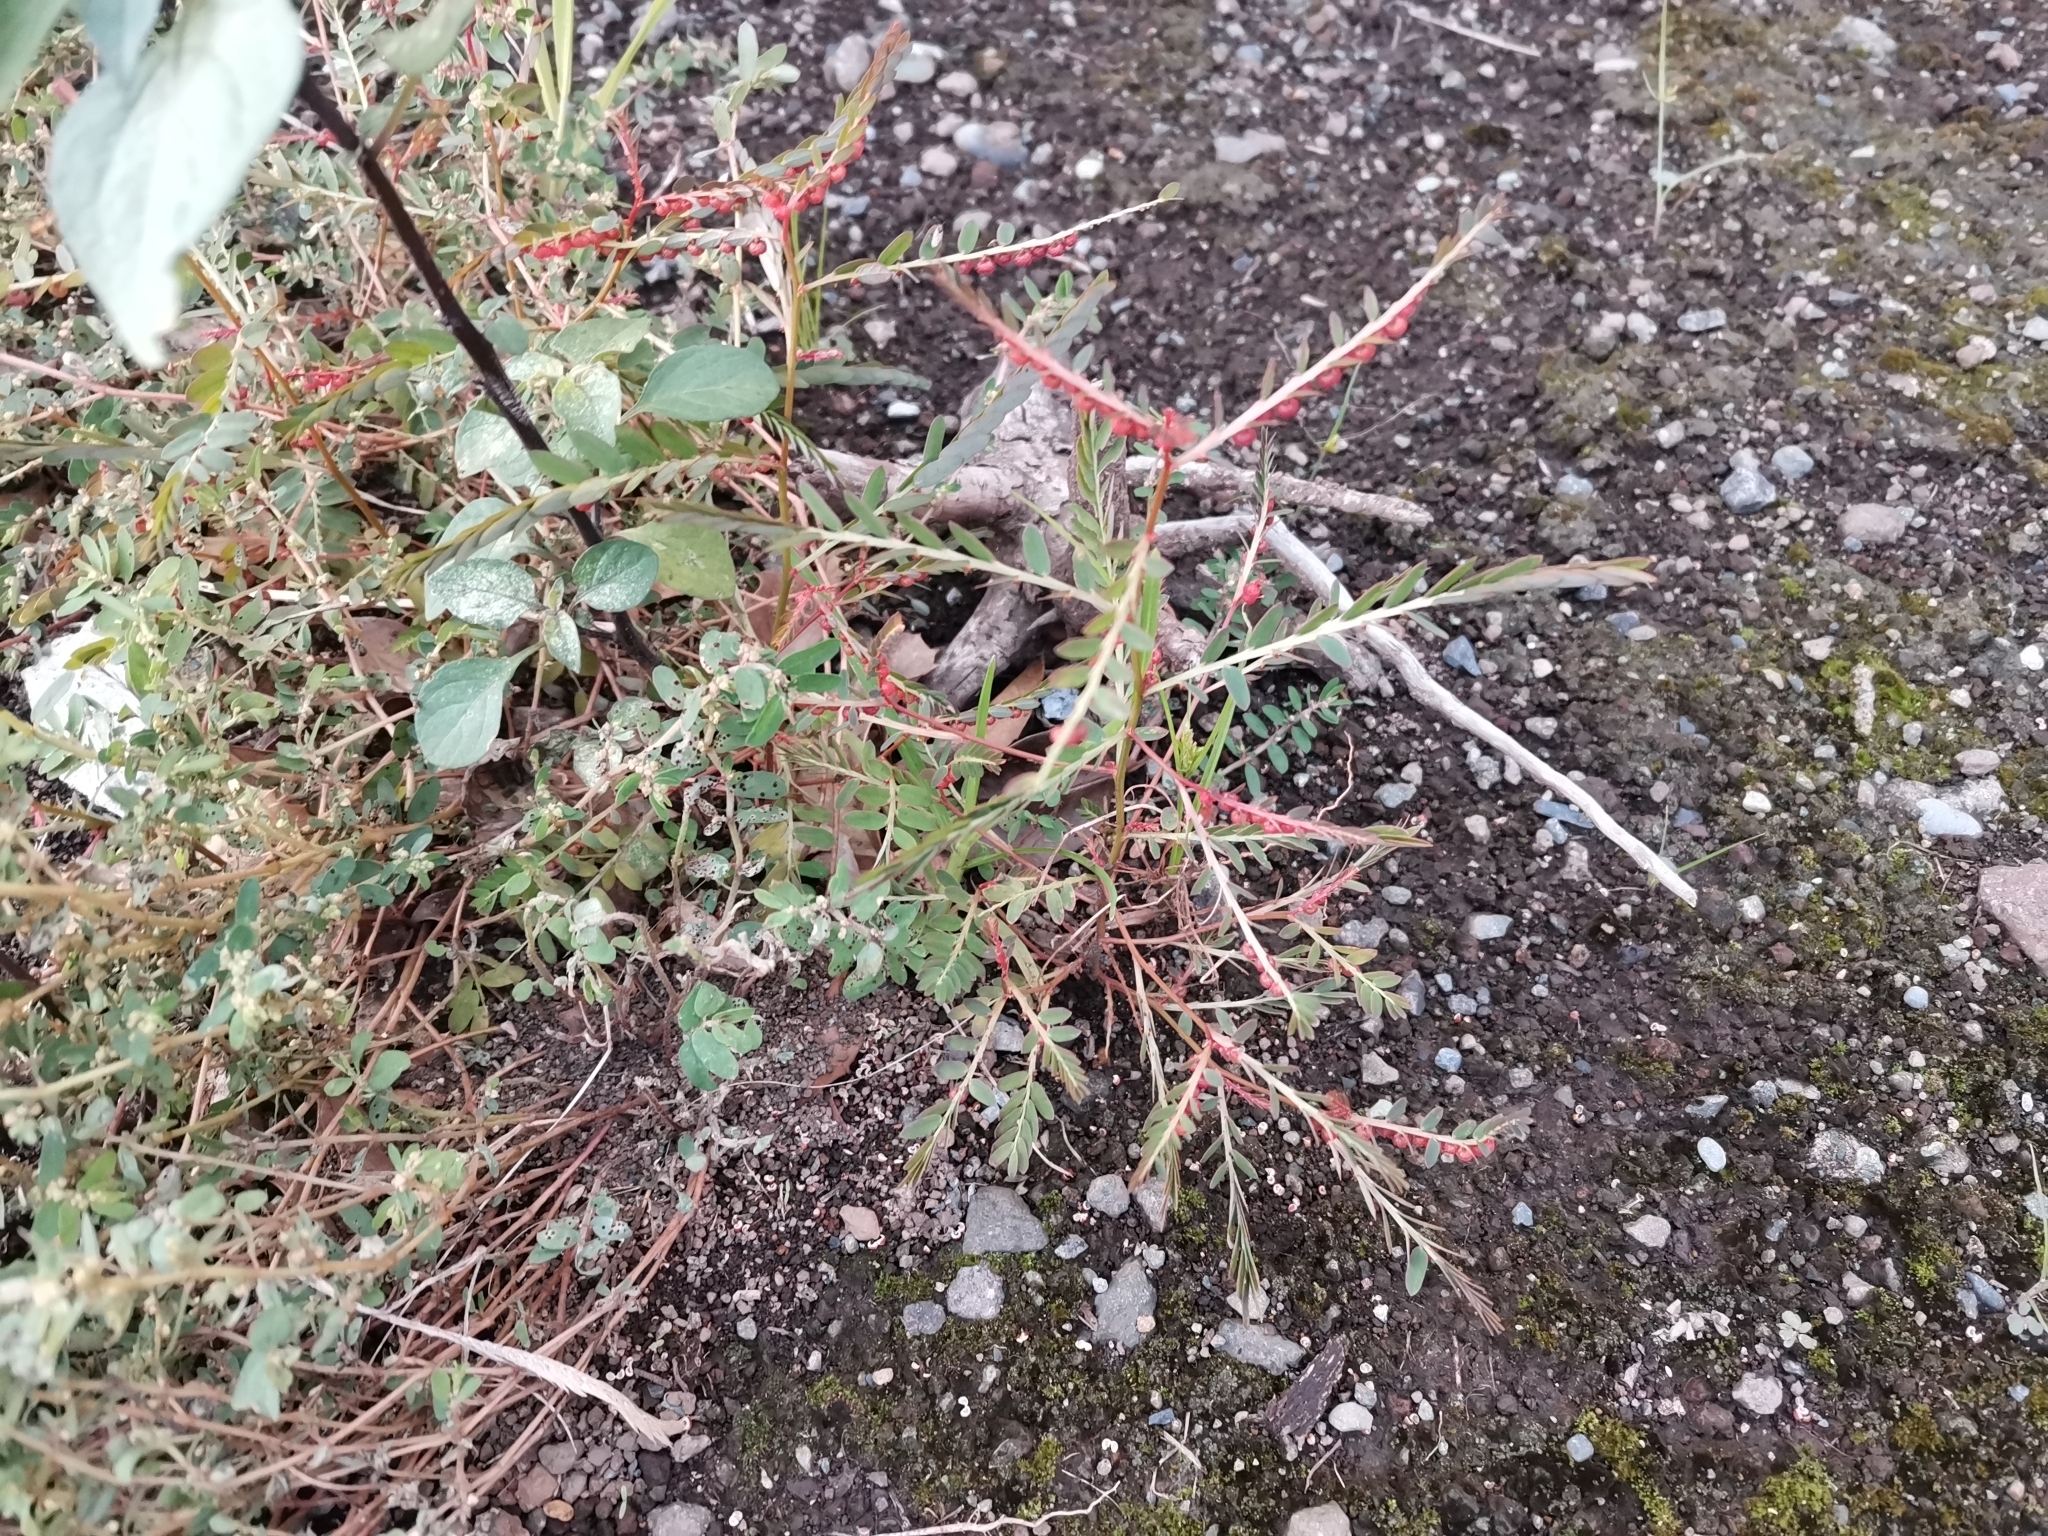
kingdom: Plantae
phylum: Tracheophyta
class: Magnoliopsida
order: Malpighiales
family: Phyllanthaceae
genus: Phyllanthus
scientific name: Phyllanthus urinaria
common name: Chamber bitter
